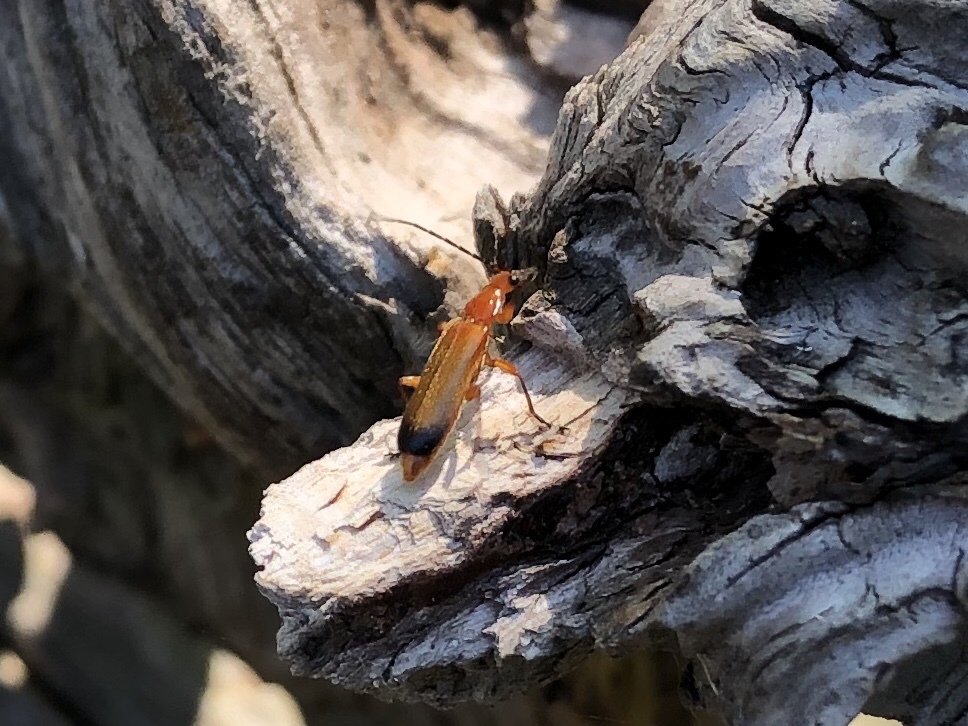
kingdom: Animalia
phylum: Arthropoda
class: Insecta
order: Coleoptera
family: Cantharidae
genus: Rhagonycha
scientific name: Rhagonycha fulva
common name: Common red soldier beetle
